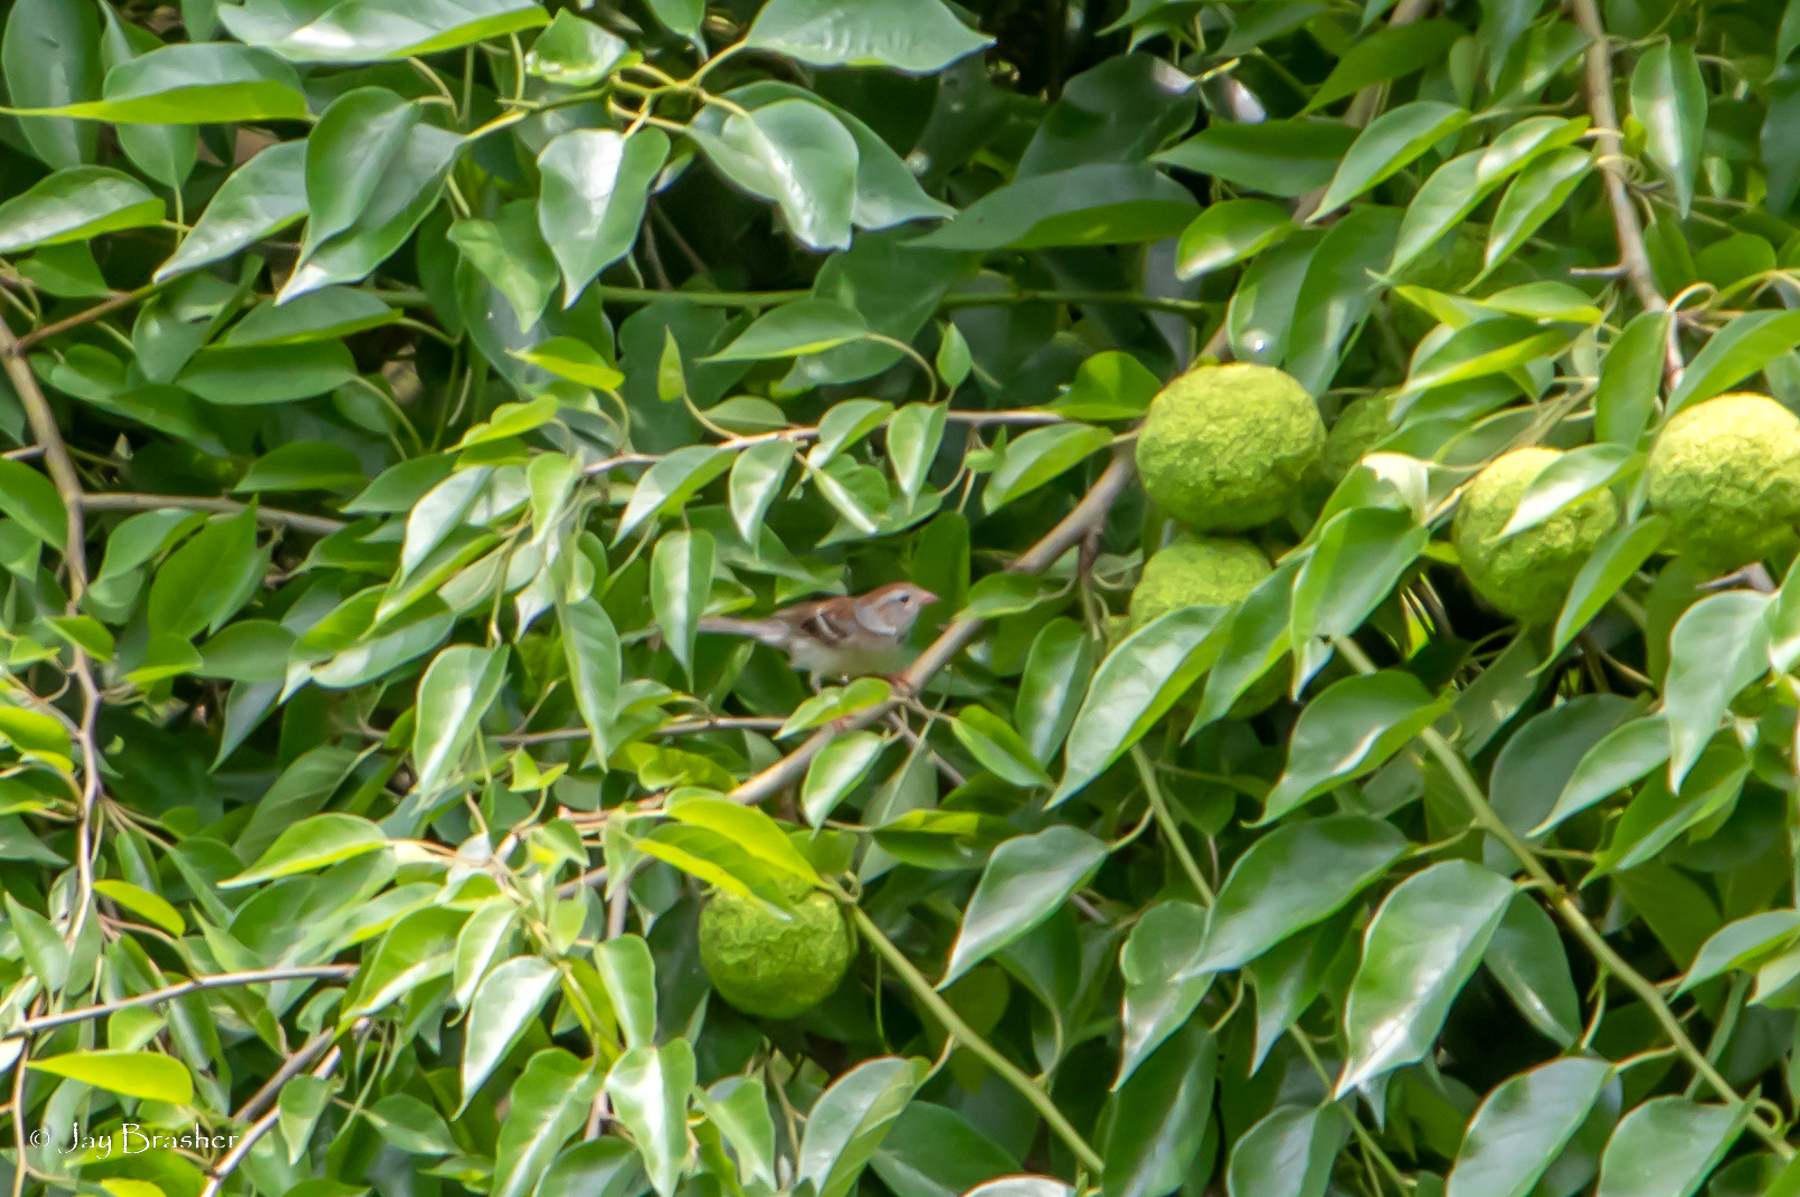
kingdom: Animalia
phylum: Chordata
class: Aves
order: Passeriformes
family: Passerellidae
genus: Spizella
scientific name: Spizella pusilla
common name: Field sparrow
